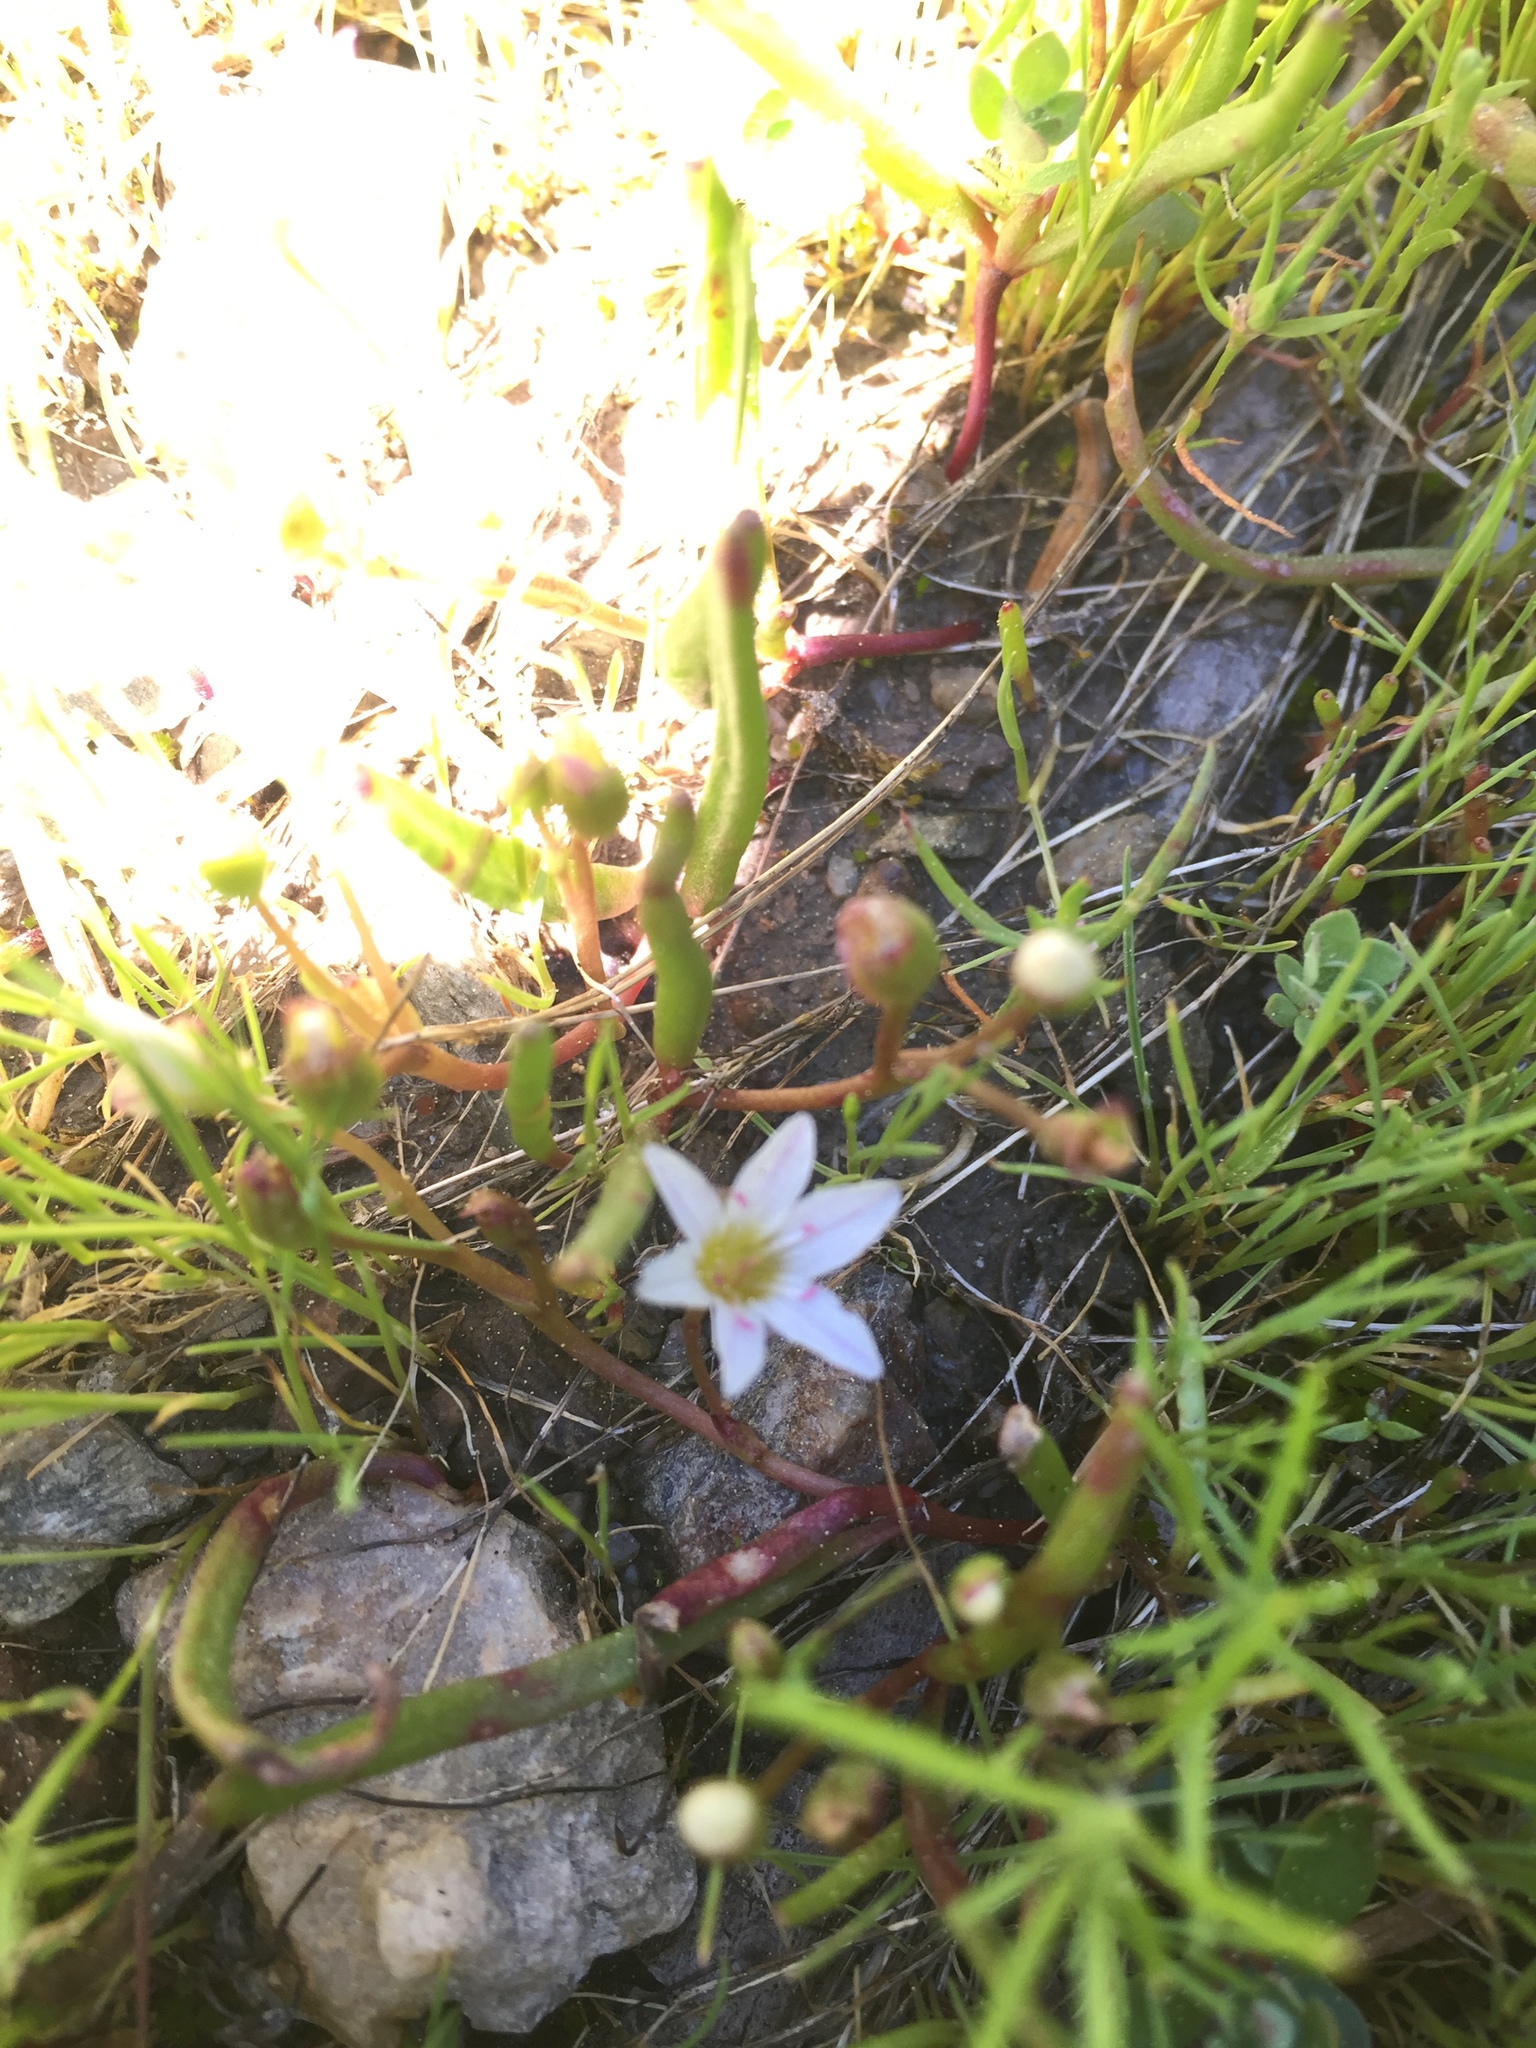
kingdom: Plantae
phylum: Tracheophyta
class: Magnoliopsida
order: Caryophyllales
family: Montiaceae
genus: Lewisia
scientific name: Lewisia triphylla
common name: Three-leaved bitterroot
